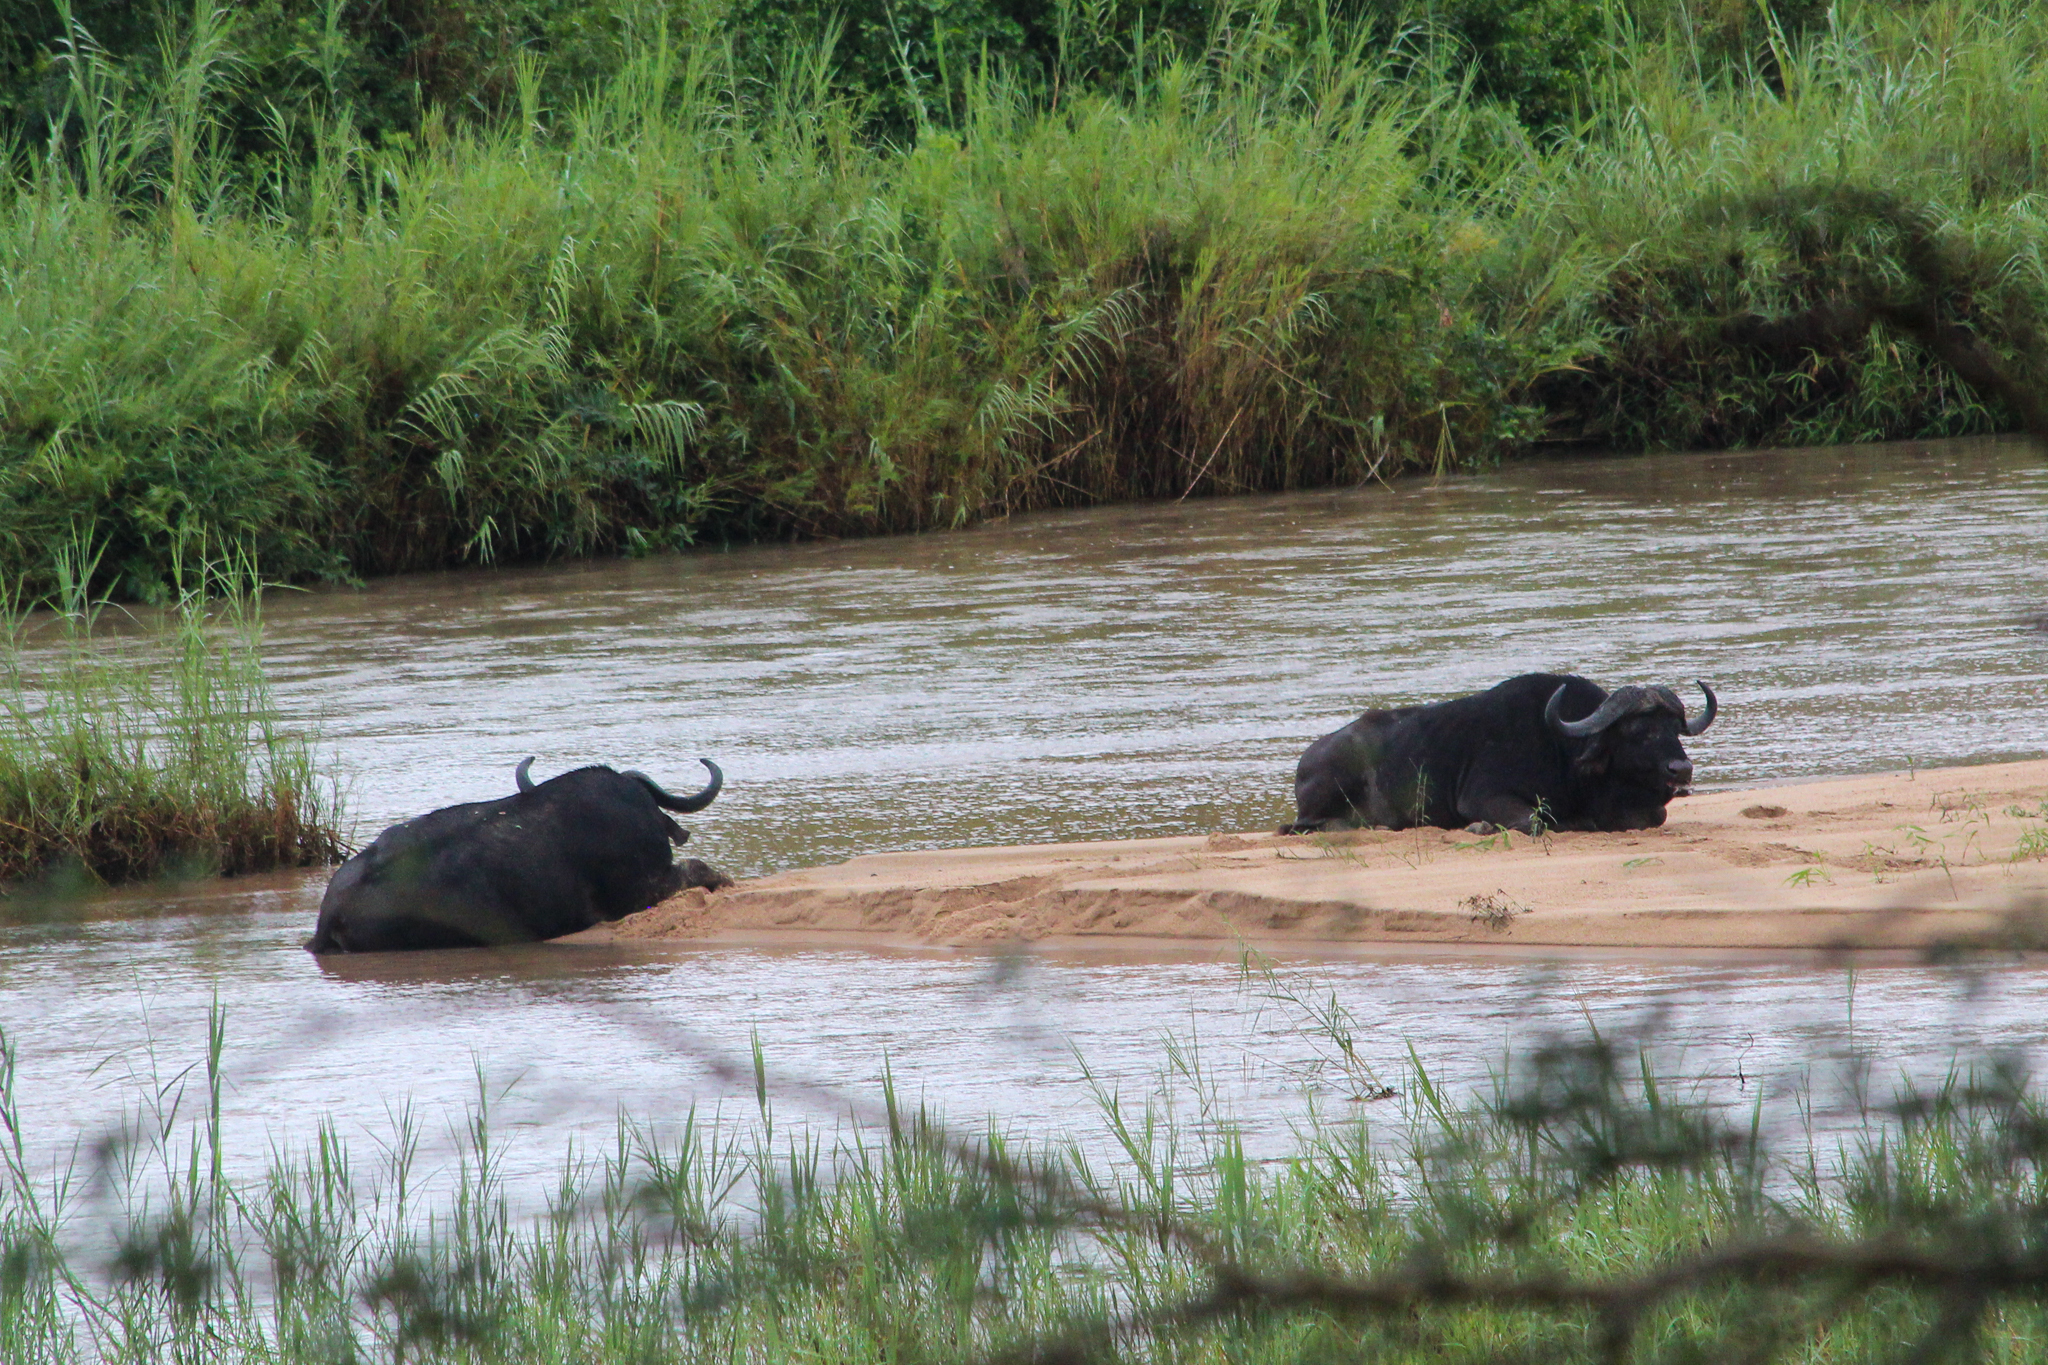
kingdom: Animalia
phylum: Chordata
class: Mammalia
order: Artiodactyla
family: Bovidae
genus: Syncerus
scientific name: Syncerus caffer
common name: African buffalo
